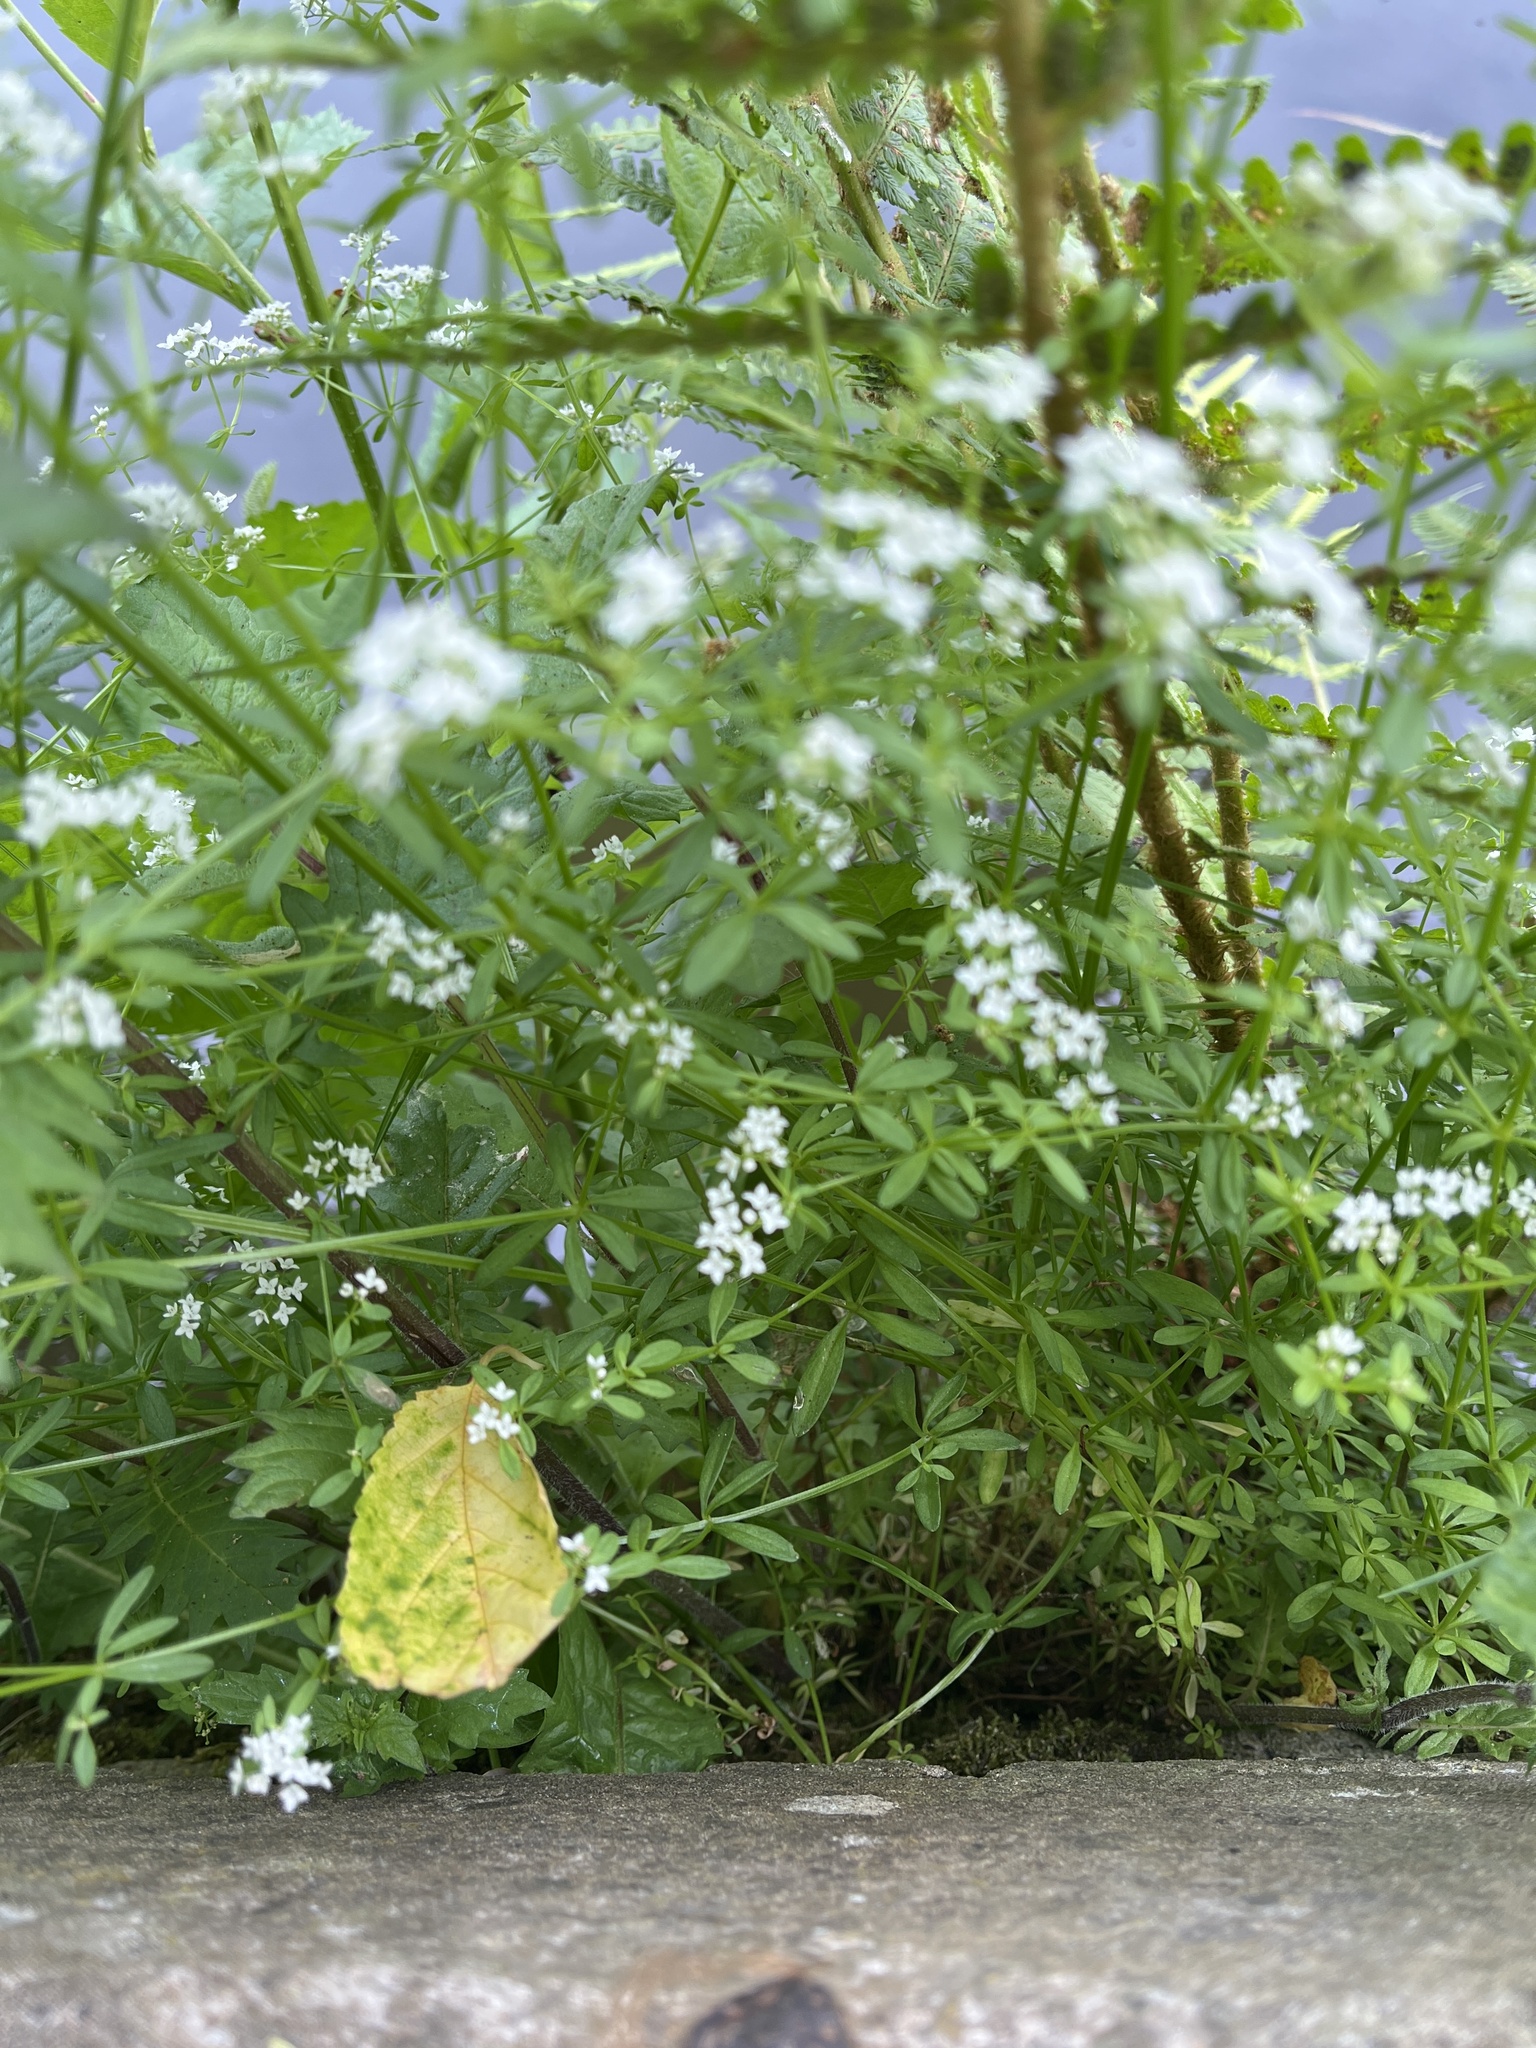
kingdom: Plantae
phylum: Tracheophyta
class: Magnoliopsida
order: Gentianales
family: Rubiaceae
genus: Galium
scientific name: Galium palustre
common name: Common marsh-bedstraw
